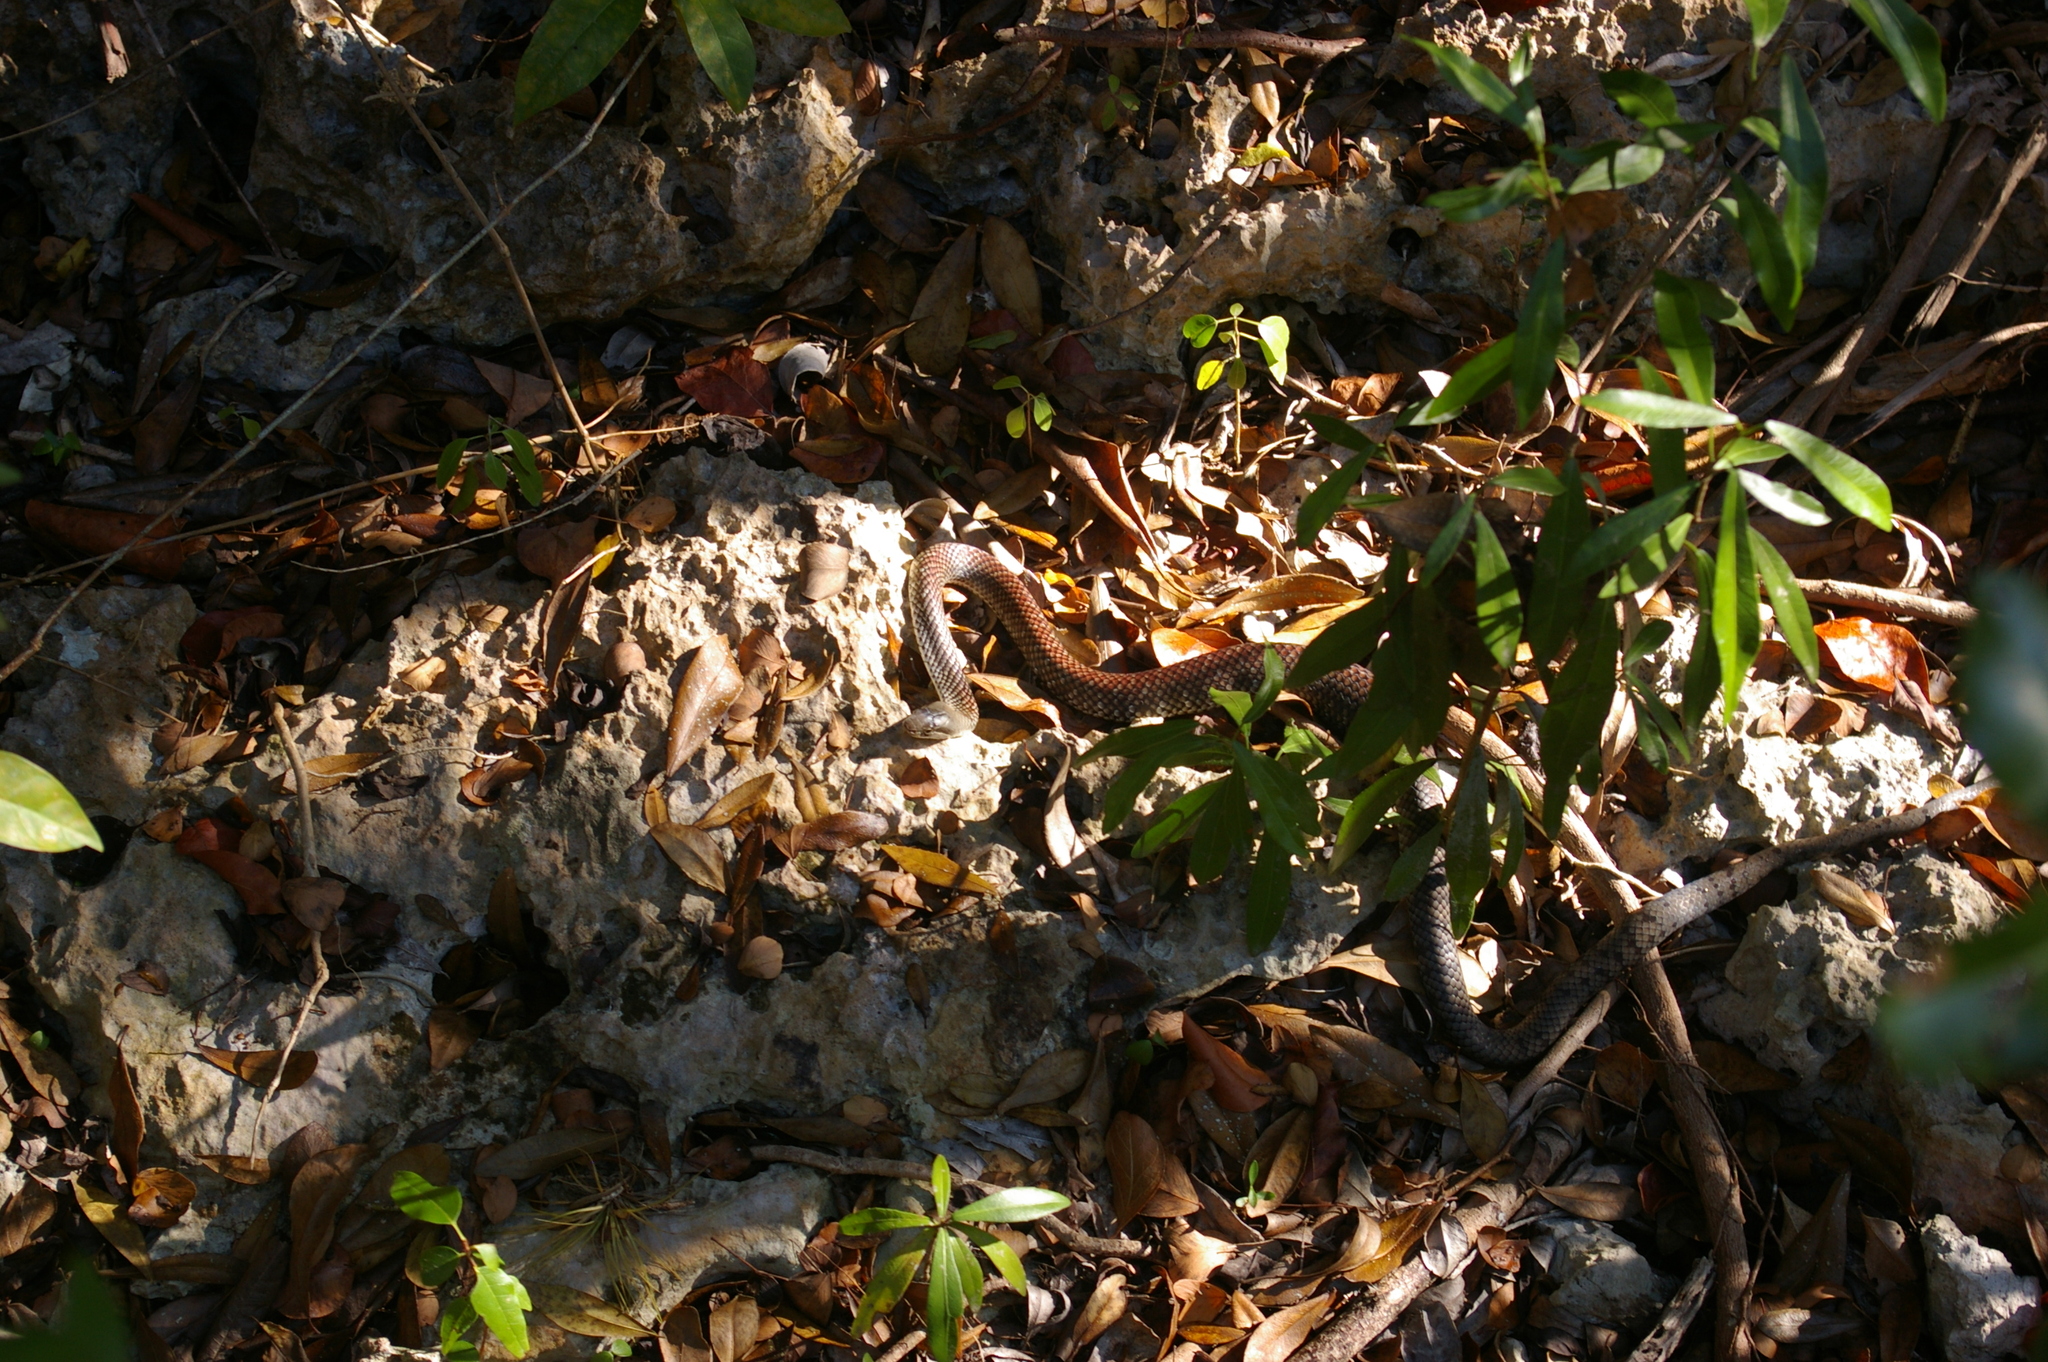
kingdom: Animalia
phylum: Chordata
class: Squamata
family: Colubridae
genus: Cubophis
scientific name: Cubophis caymanus
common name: Black snake
